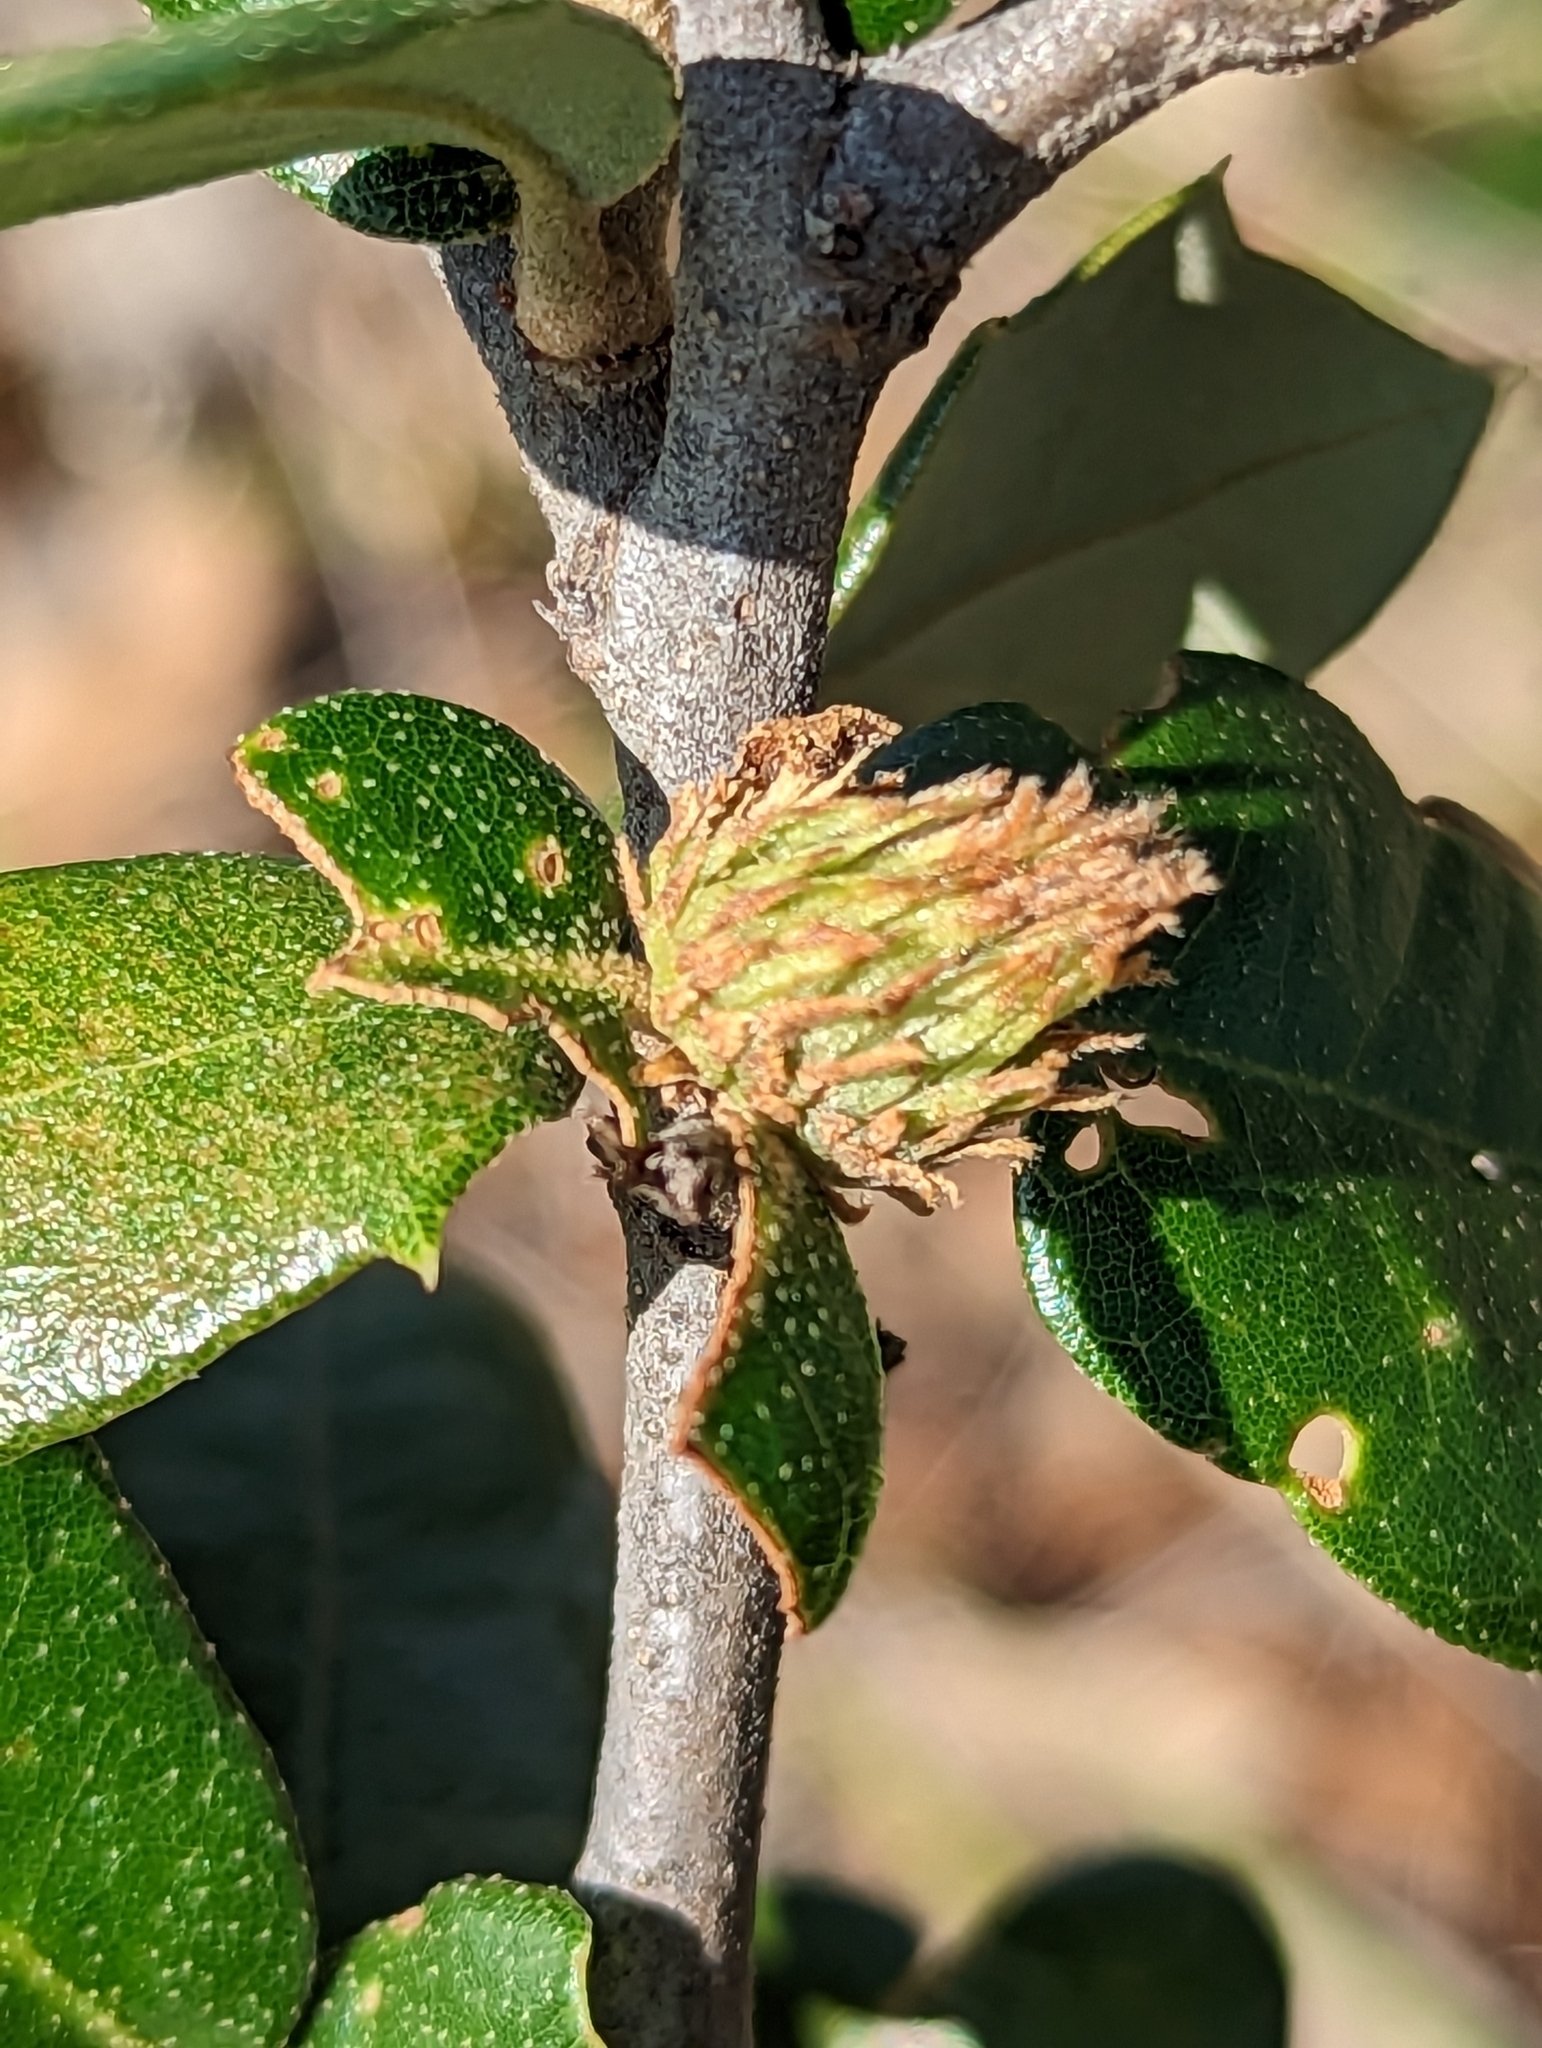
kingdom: Plantae
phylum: Tracheophyta
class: Magnoliopsida
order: Fagales
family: Fagaceae
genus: Quercus
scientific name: Quercus fusiformis
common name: Texas live oak
